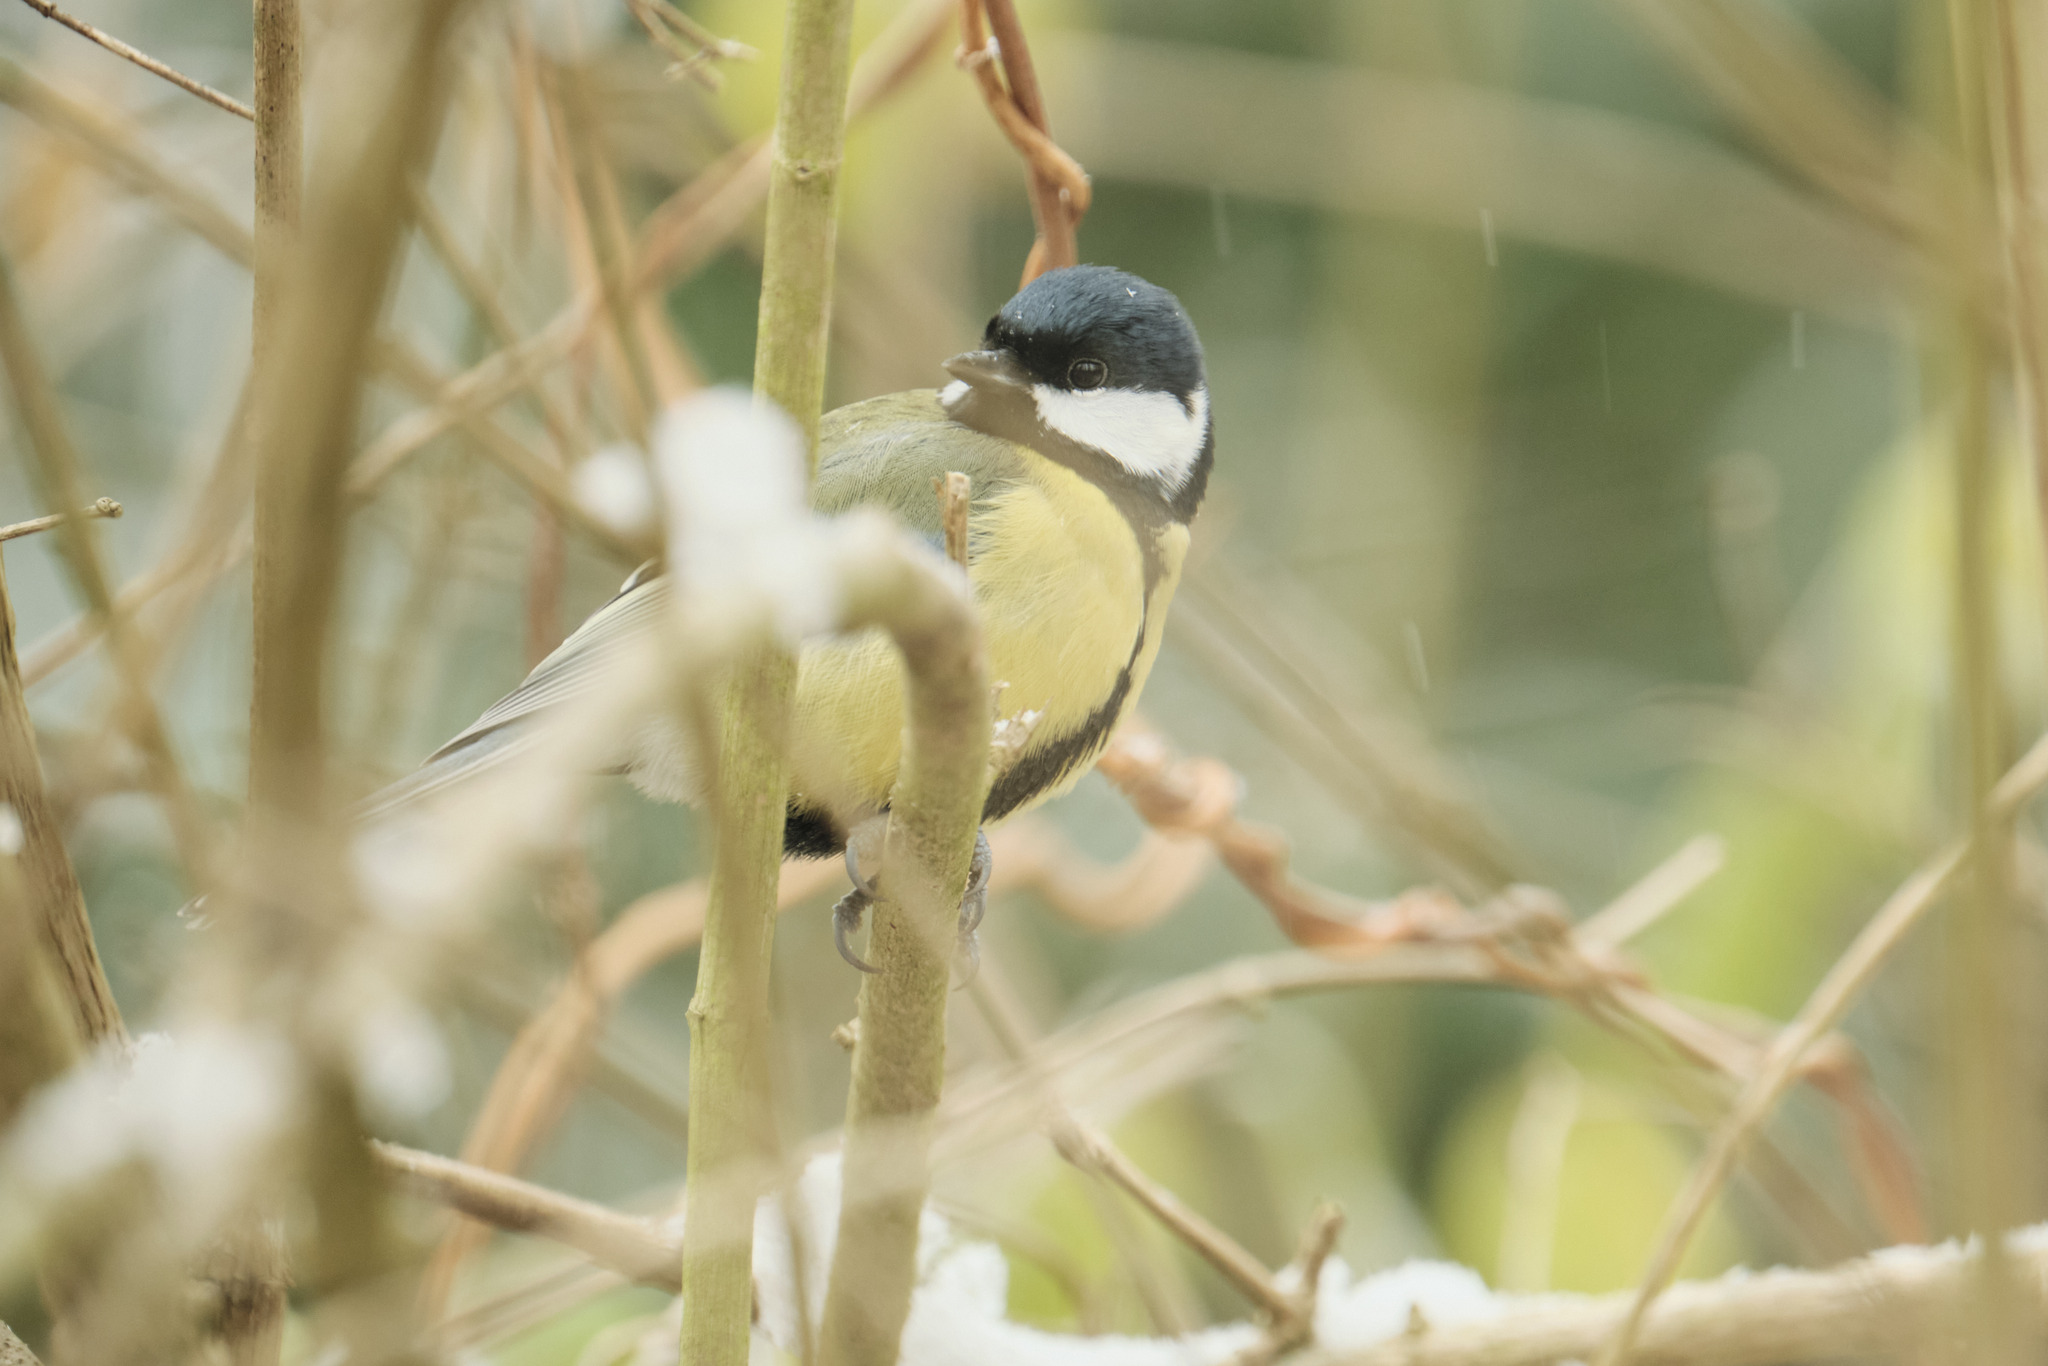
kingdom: Animalia
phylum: Chordata
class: Aves
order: Passeriformes
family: Paridae
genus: Parus
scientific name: Parus major
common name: Great tit
